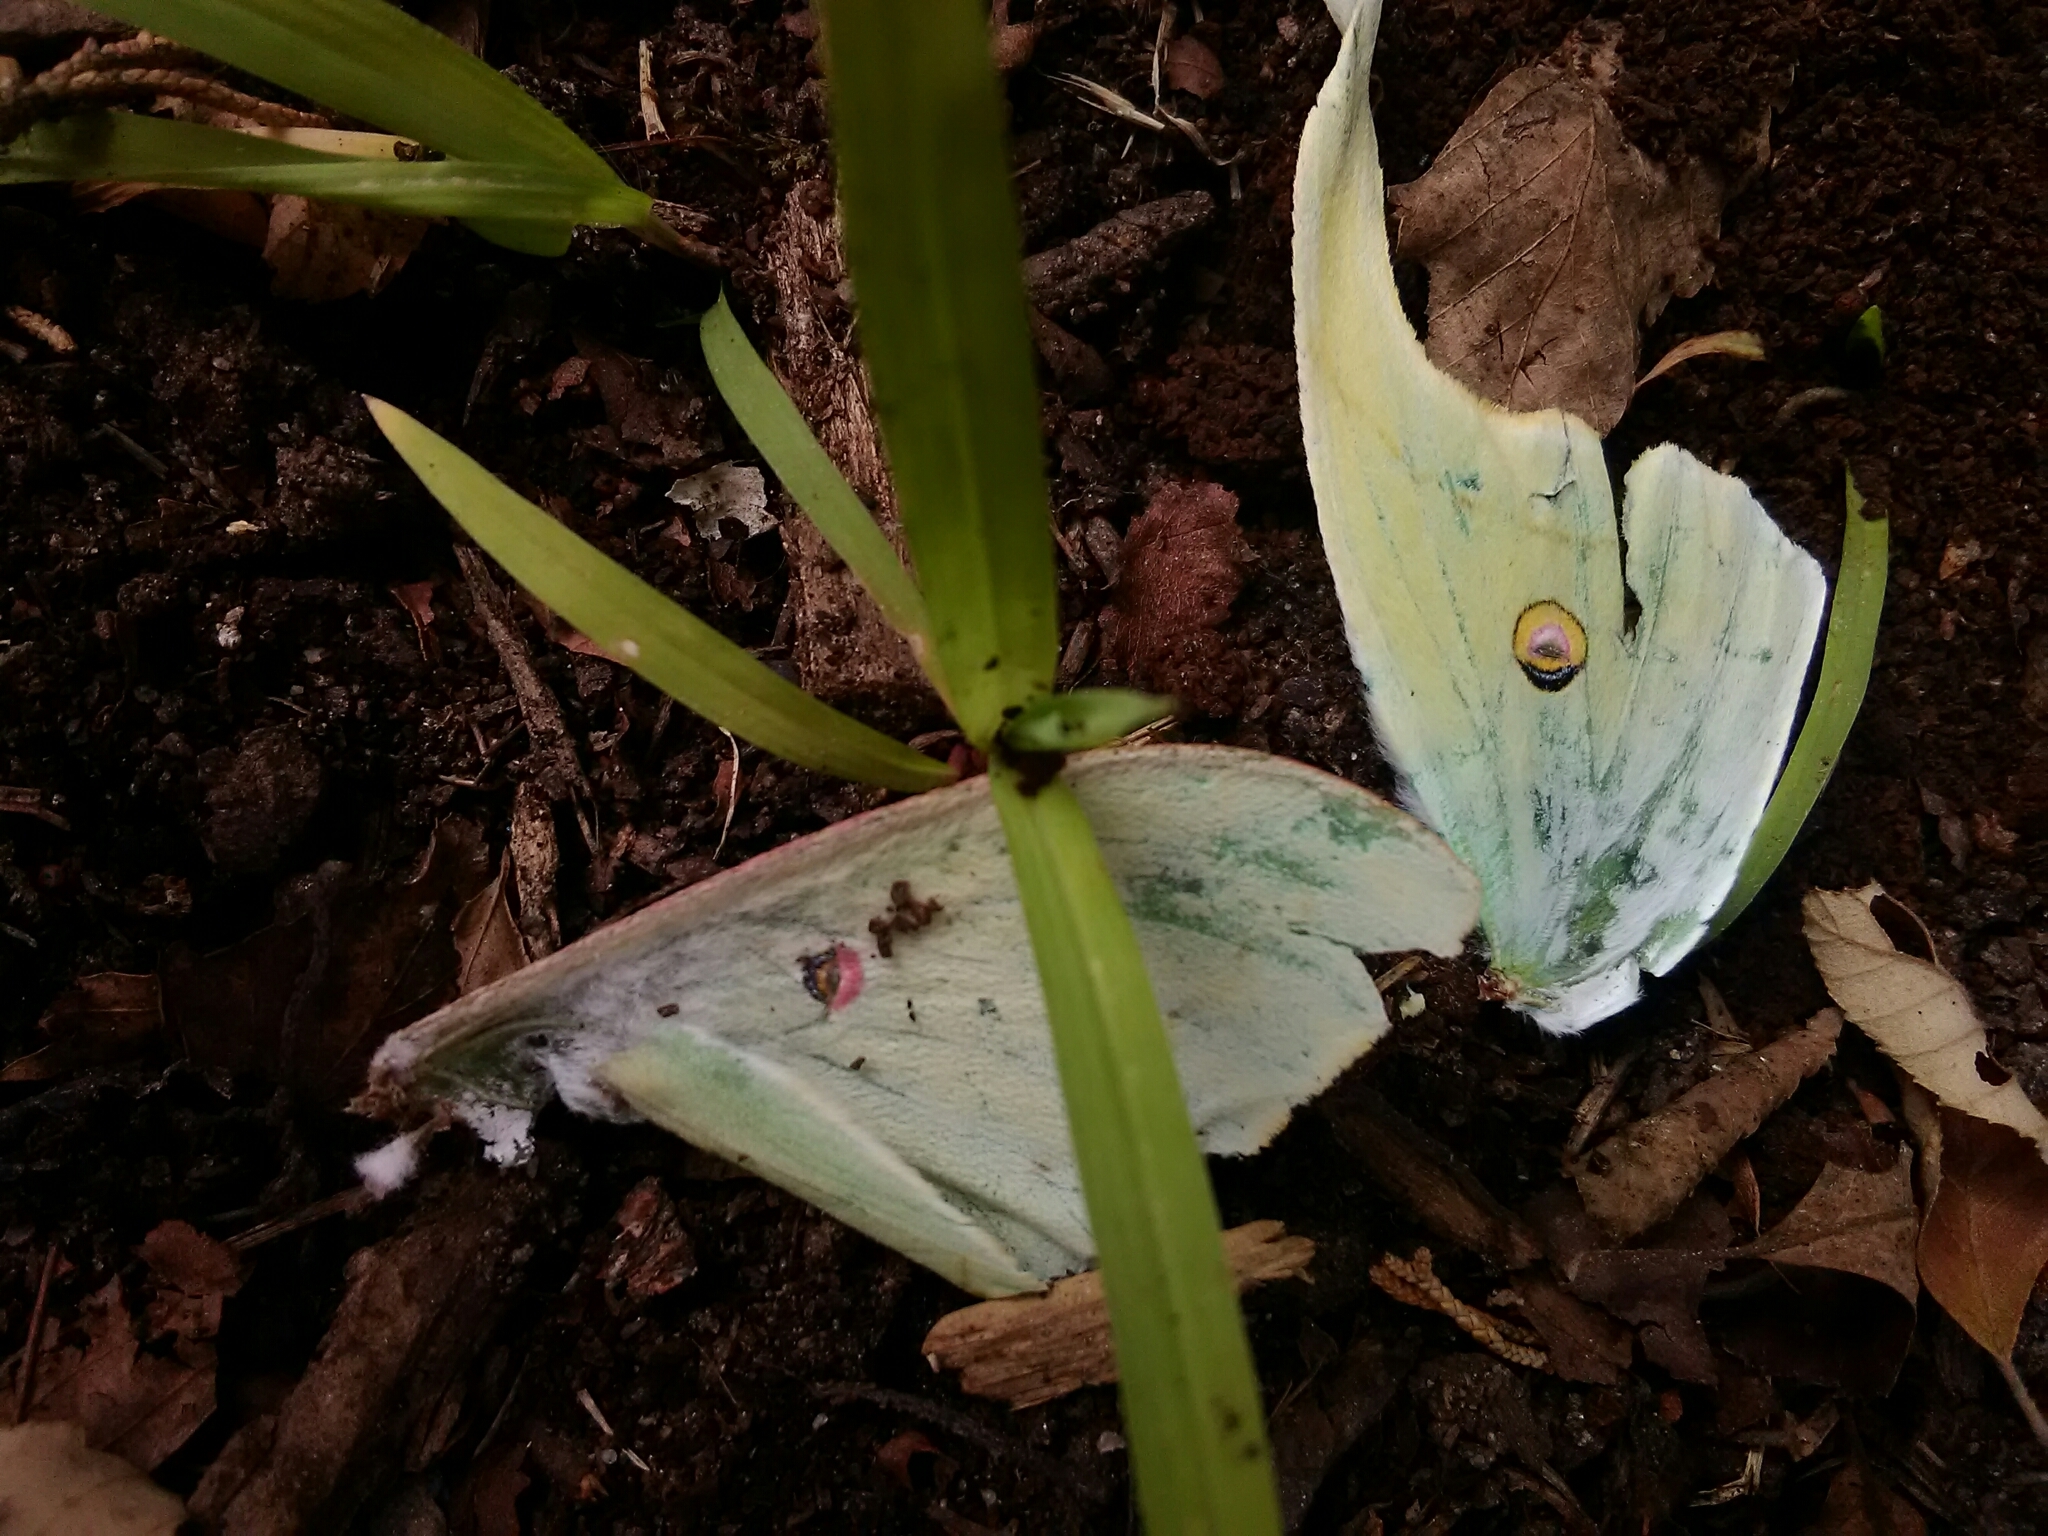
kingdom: Animalia
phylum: Arthropoda
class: Insecta
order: Lepidoptera
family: Saturniidae
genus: Actias
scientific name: Actias luna
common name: Luna moth
